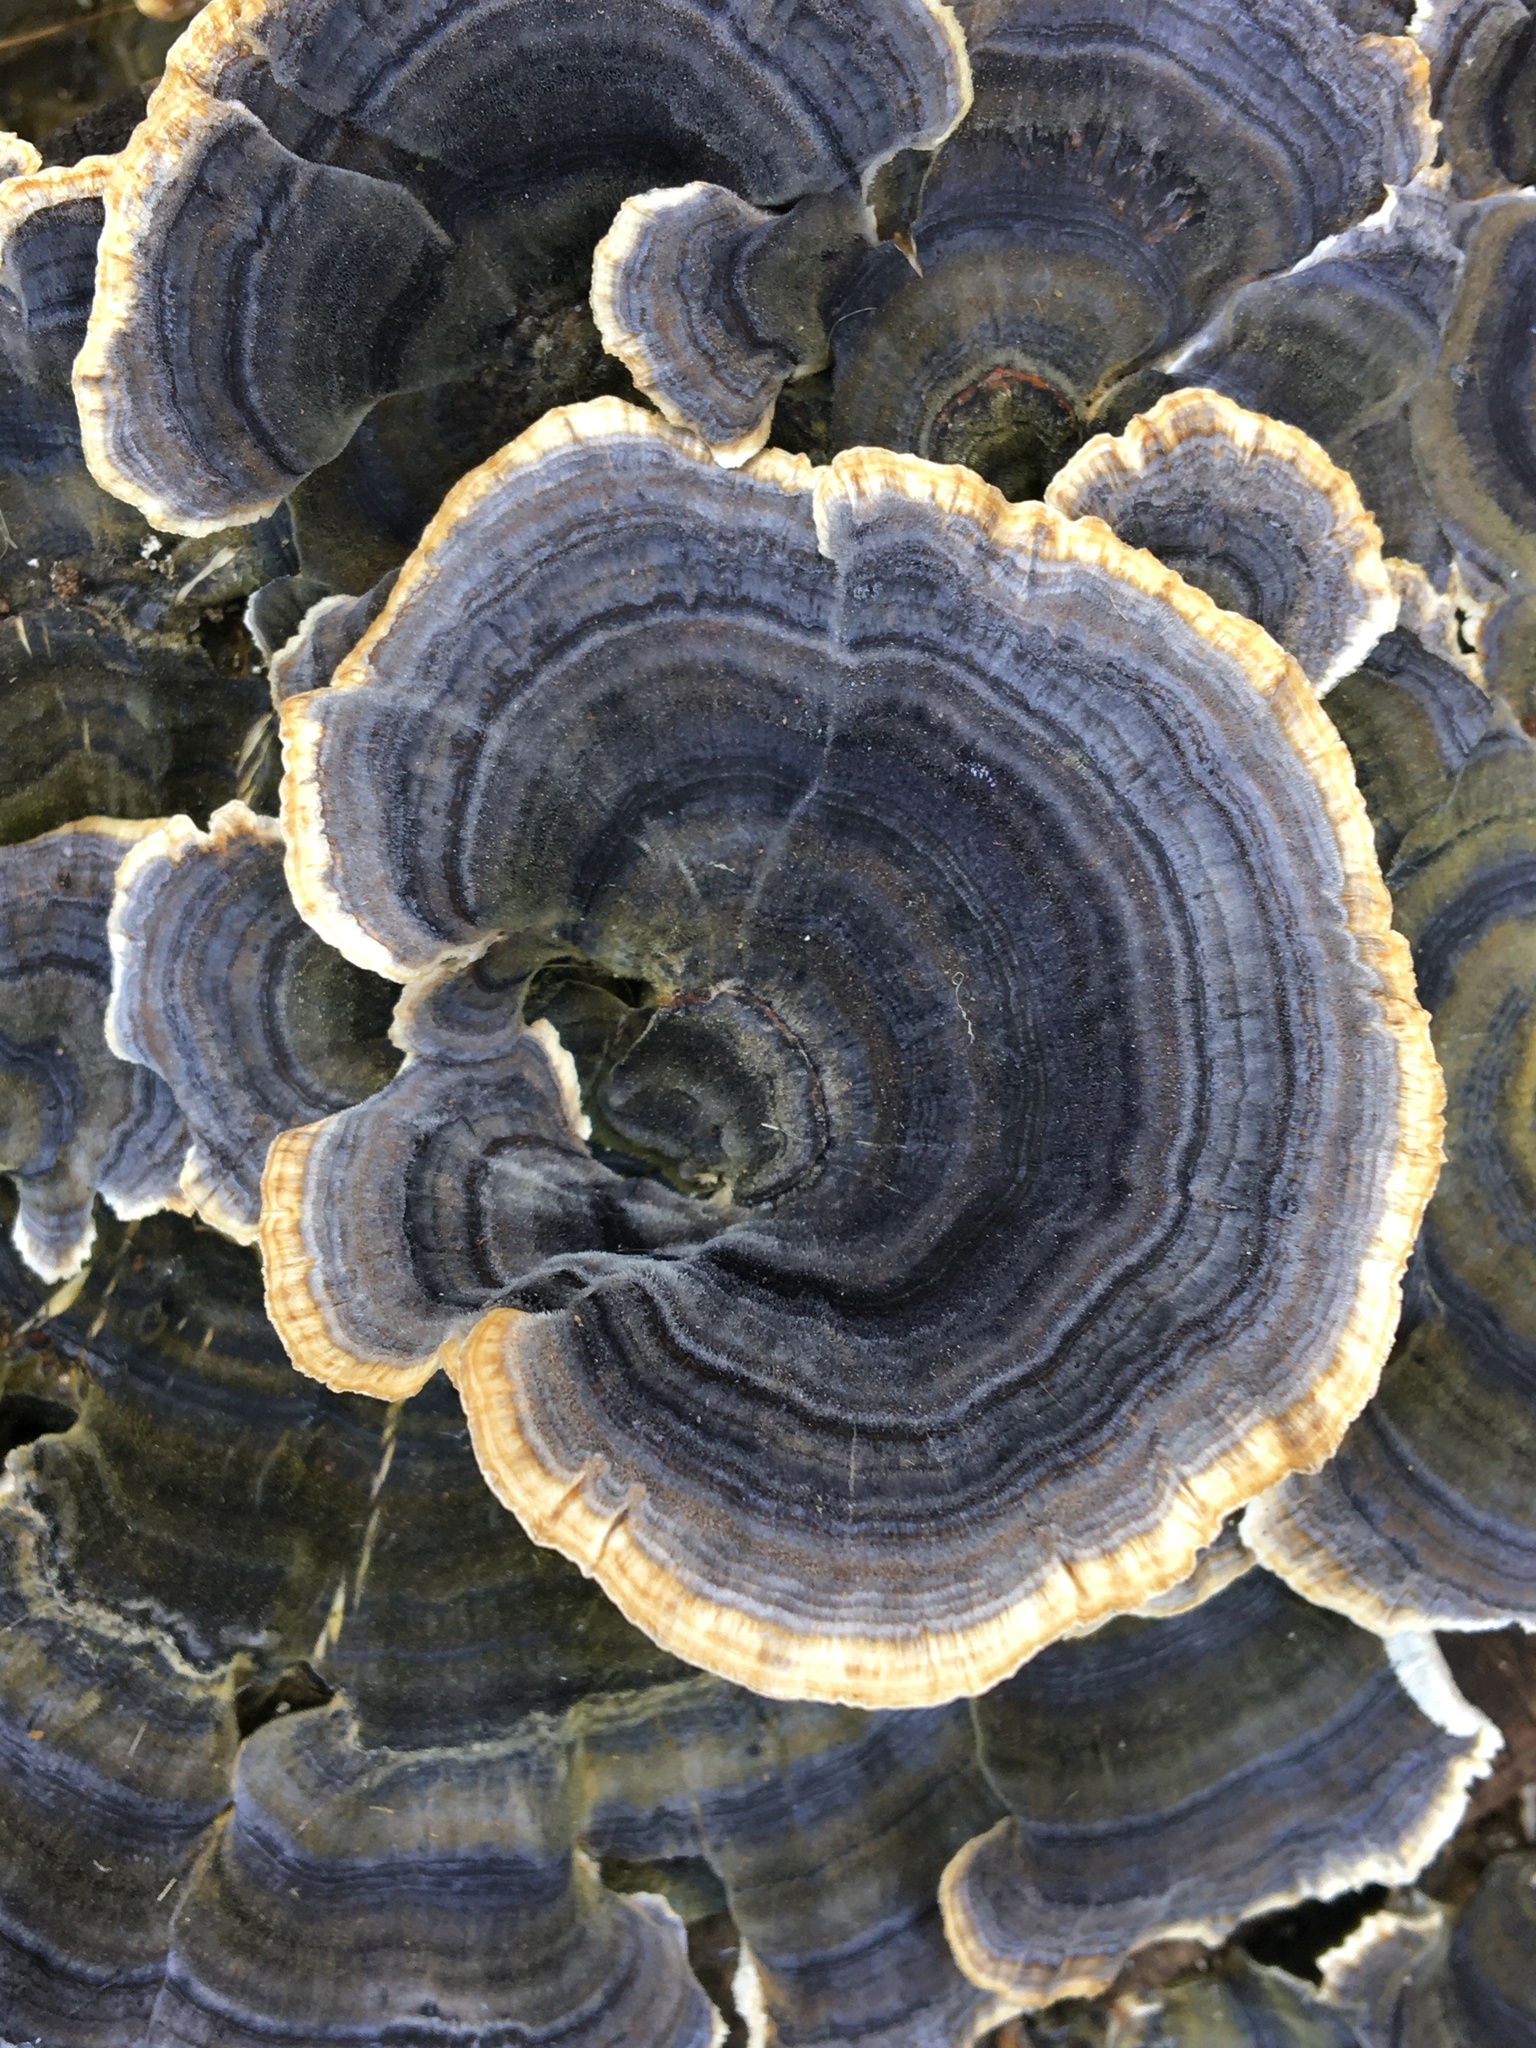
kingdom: Fungi
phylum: Basidiomycota
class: Agaricomycetes
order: Polyporales
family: Polyporaceae
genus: Trametes
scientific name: Trametes versicolor
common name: Turkeytail
